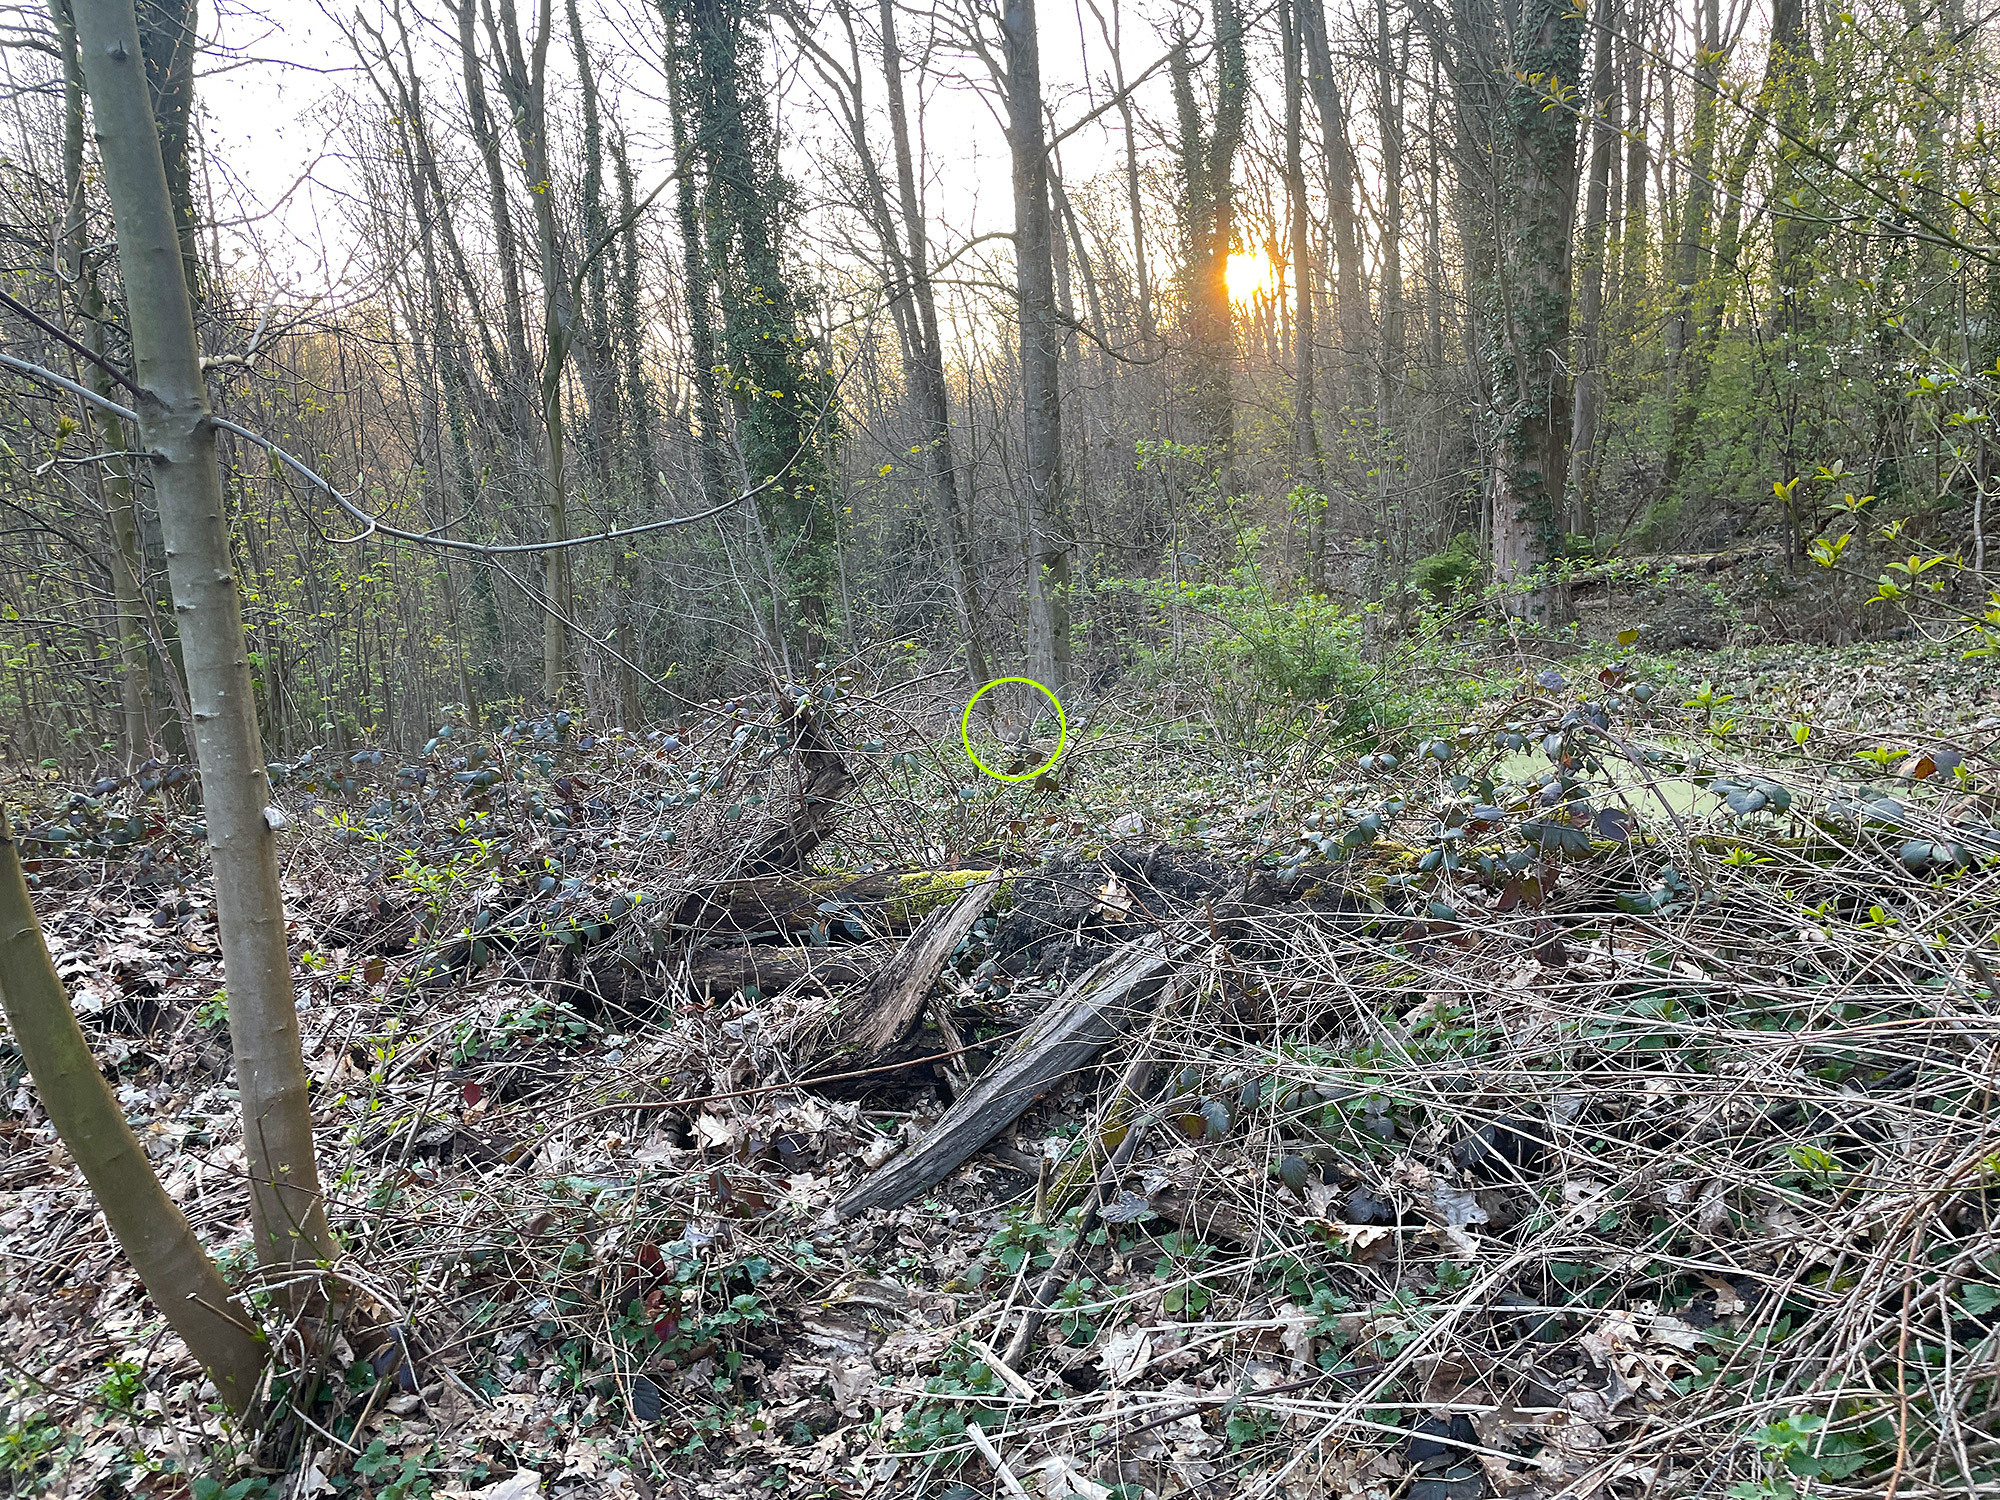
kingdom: Animalia
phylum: Chordata
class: Mammalia
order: Lagomorpha
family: Leporidae
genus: Oryctolagus
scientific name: Oryctolagus cuniculus
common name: European rabbit
